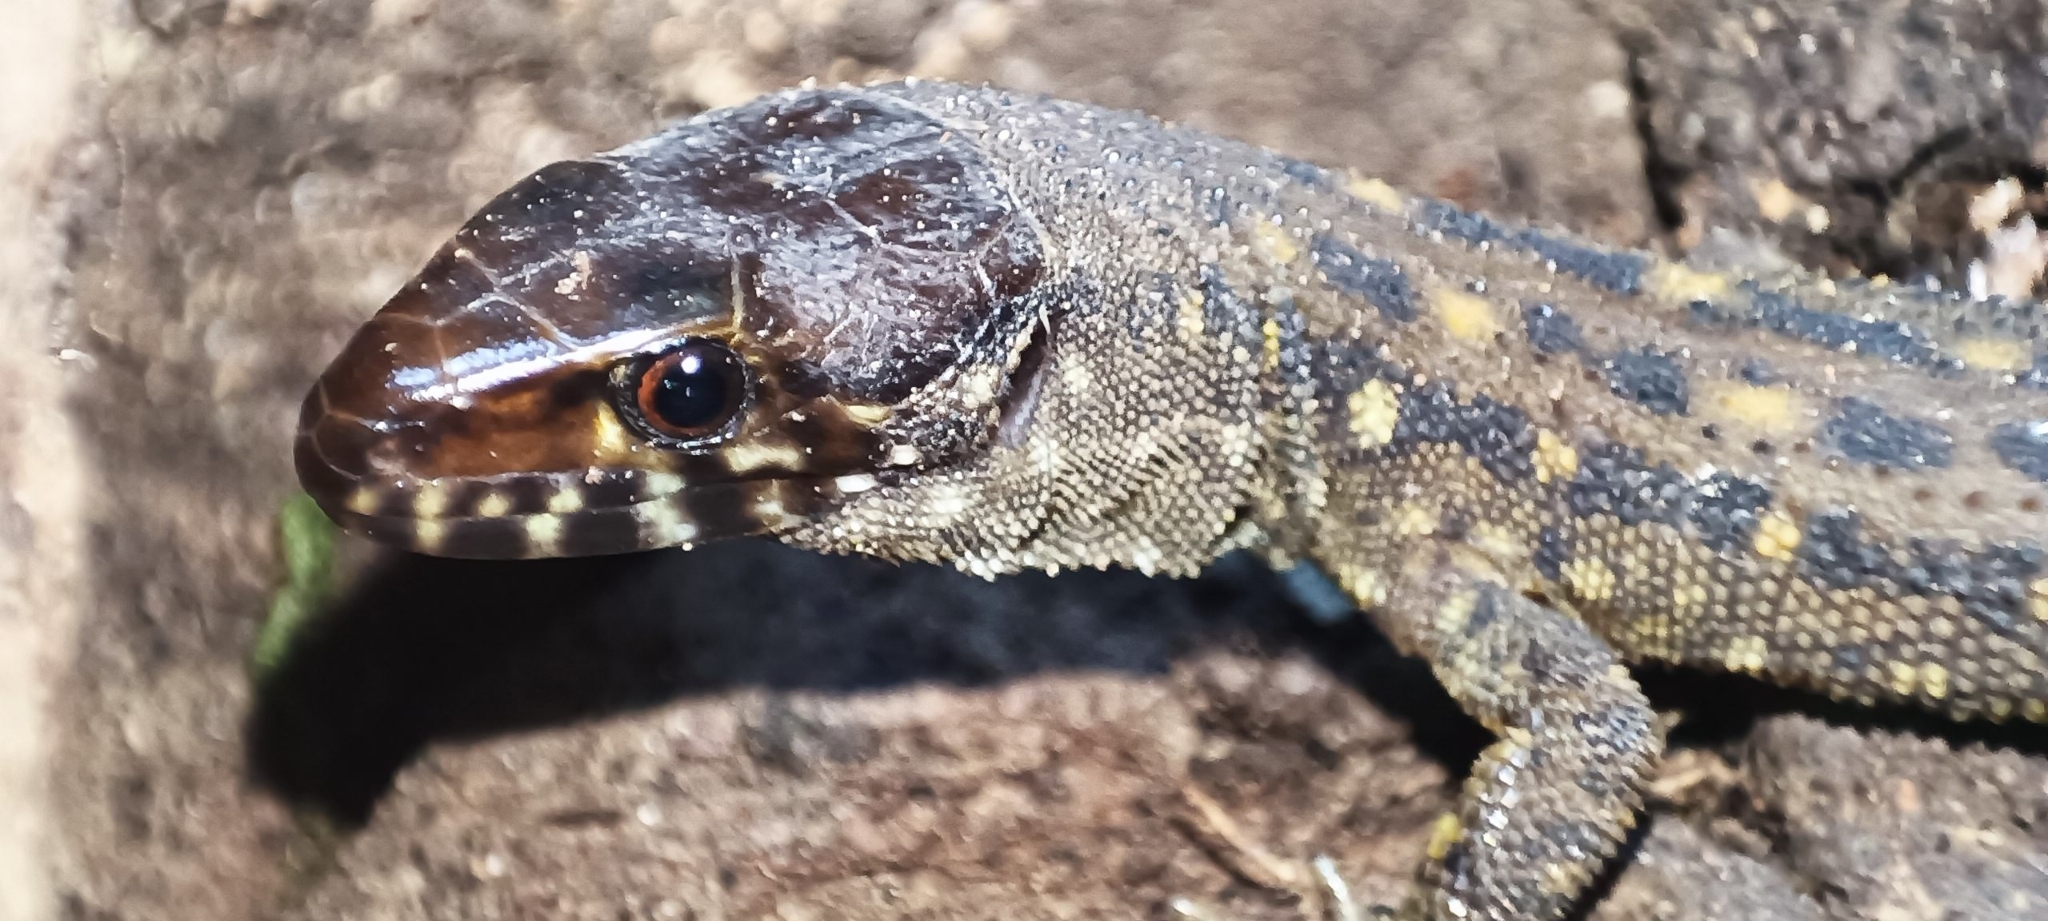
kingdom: Animalia
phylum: Chordata
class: Squamata
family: Xantusiidae
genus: Lepidophyma
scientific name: Lepidophyma sylvaticum
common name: Madrean tropical night lizard
